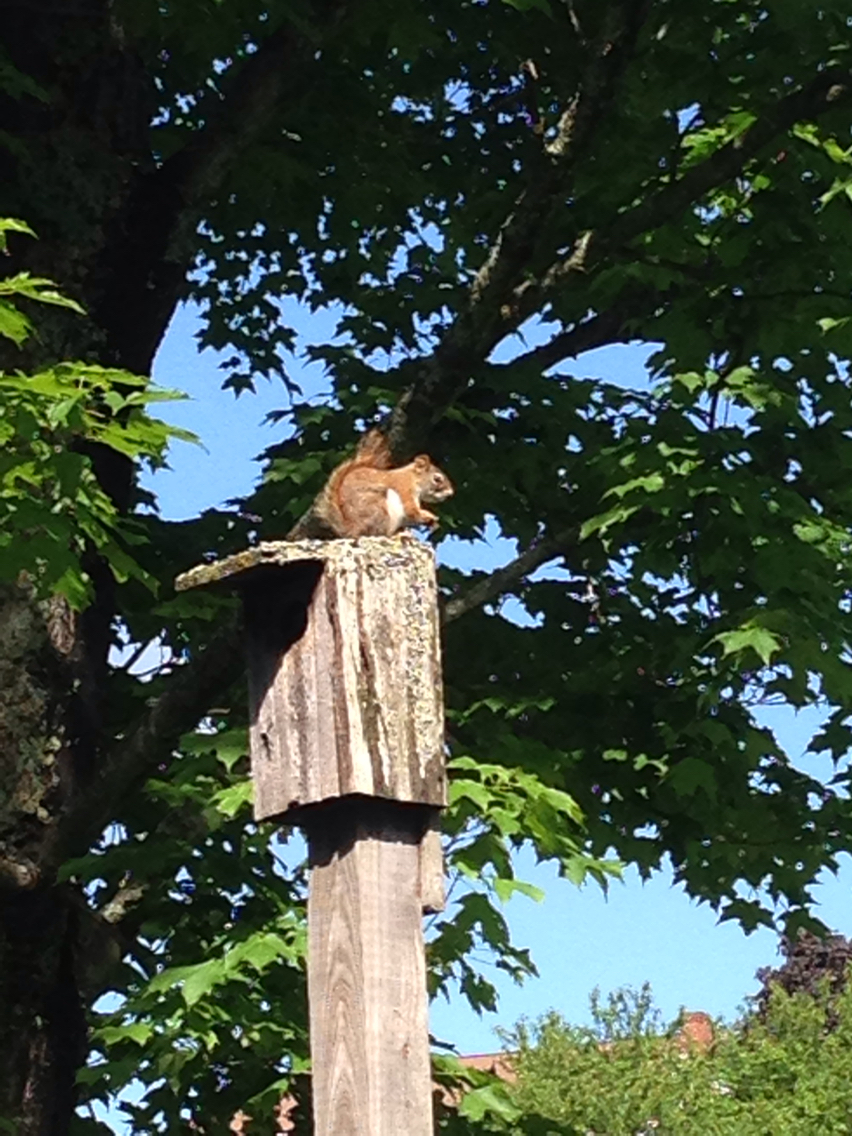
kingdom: Animalia
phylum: Chordata
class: Mammalia
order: Rodentia
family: Sciuridae
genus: Tamiasciurus
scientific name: Tamiasciurus hudsonicus
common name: Red squirrel
